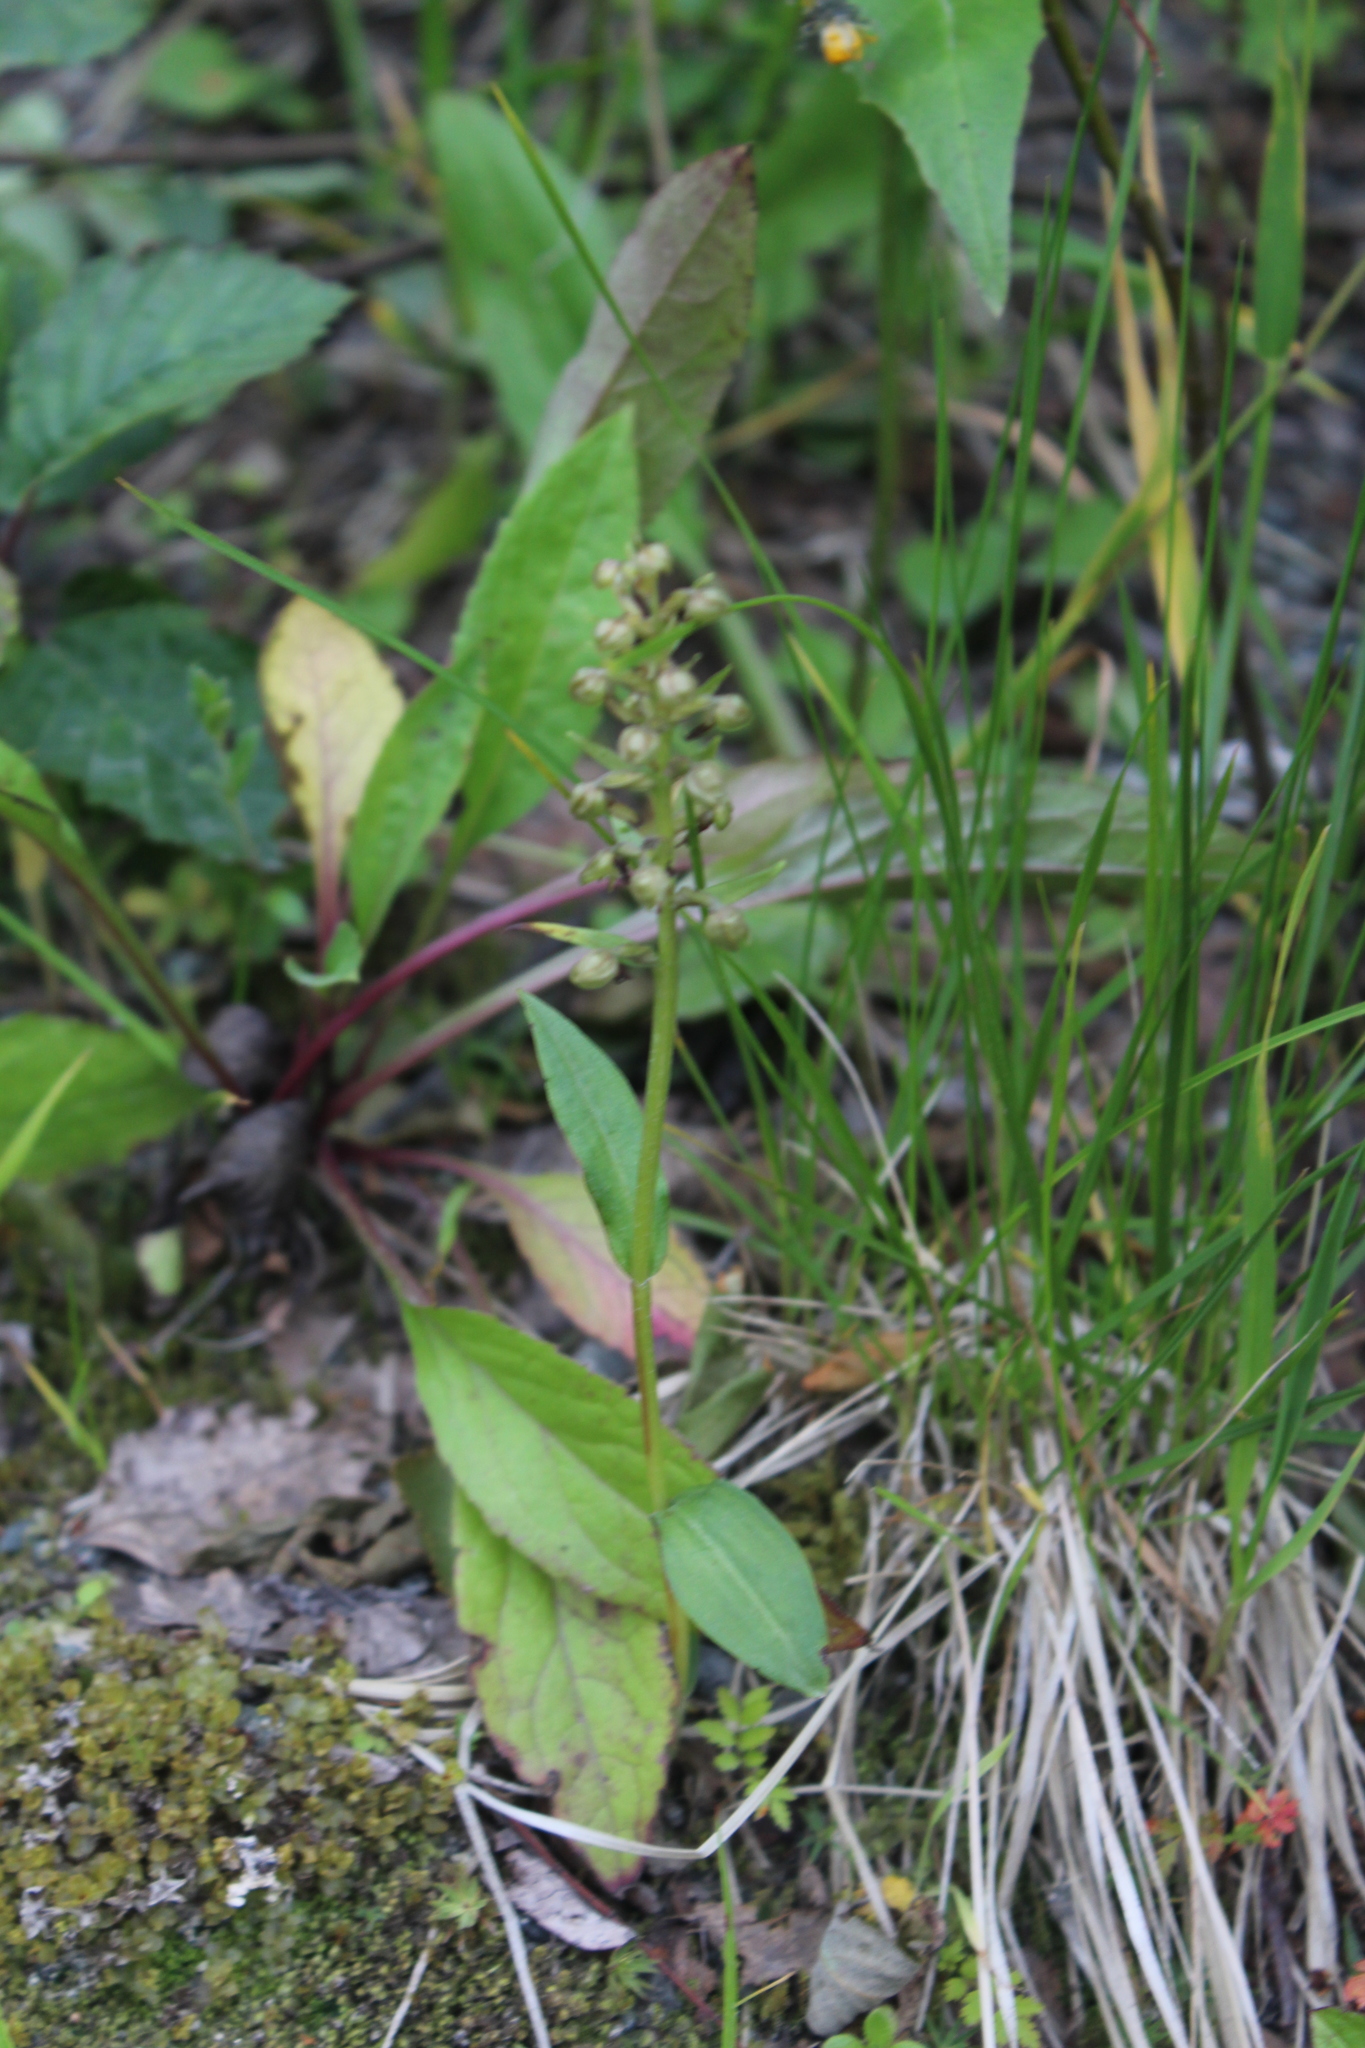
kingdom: Plantae
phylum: Tracheophyta
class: Liliopsida
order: Asparagales
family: Orchidaceae
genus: Dactylorhiza
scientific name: Dactylorhiza viridis
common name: Longbract frog orchid
